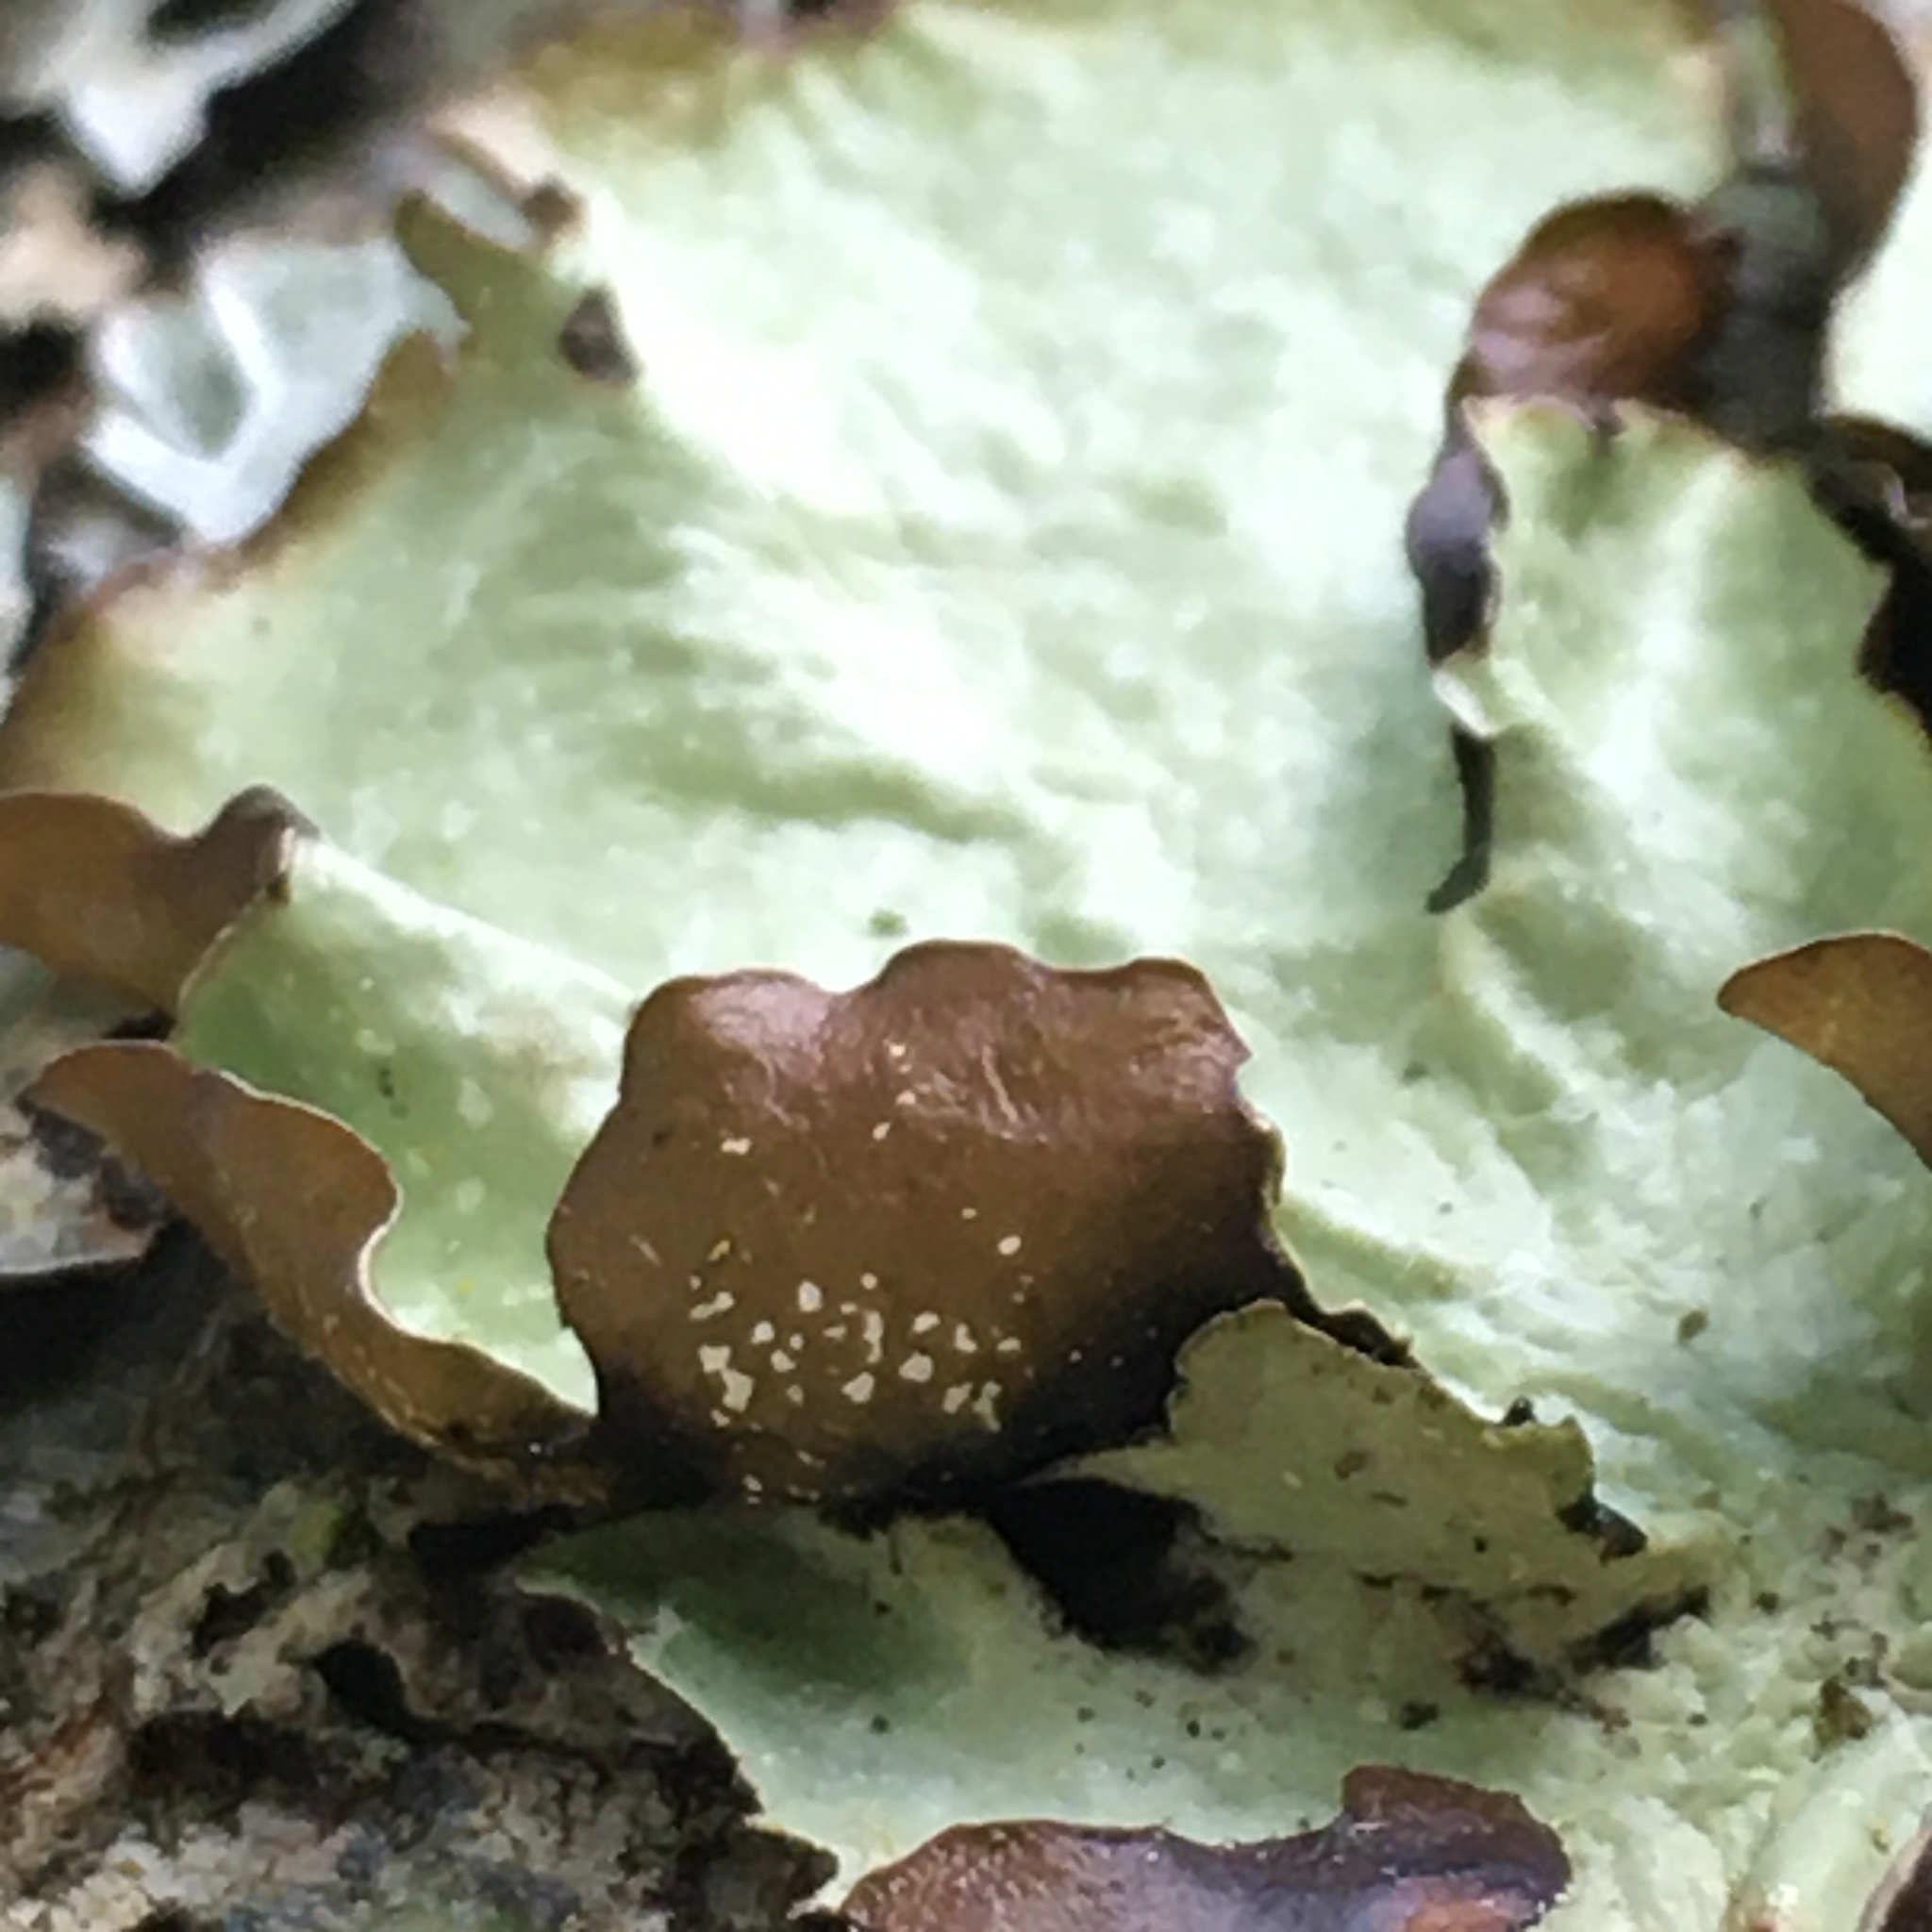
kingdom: Fungi
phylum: Ascomycota
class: Lecanoromycetes
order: Lecanorales
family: Parmeliaceae
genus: Cetrelia
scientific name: Cetrelia cetrarioides
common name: Speckled iceland lichen
